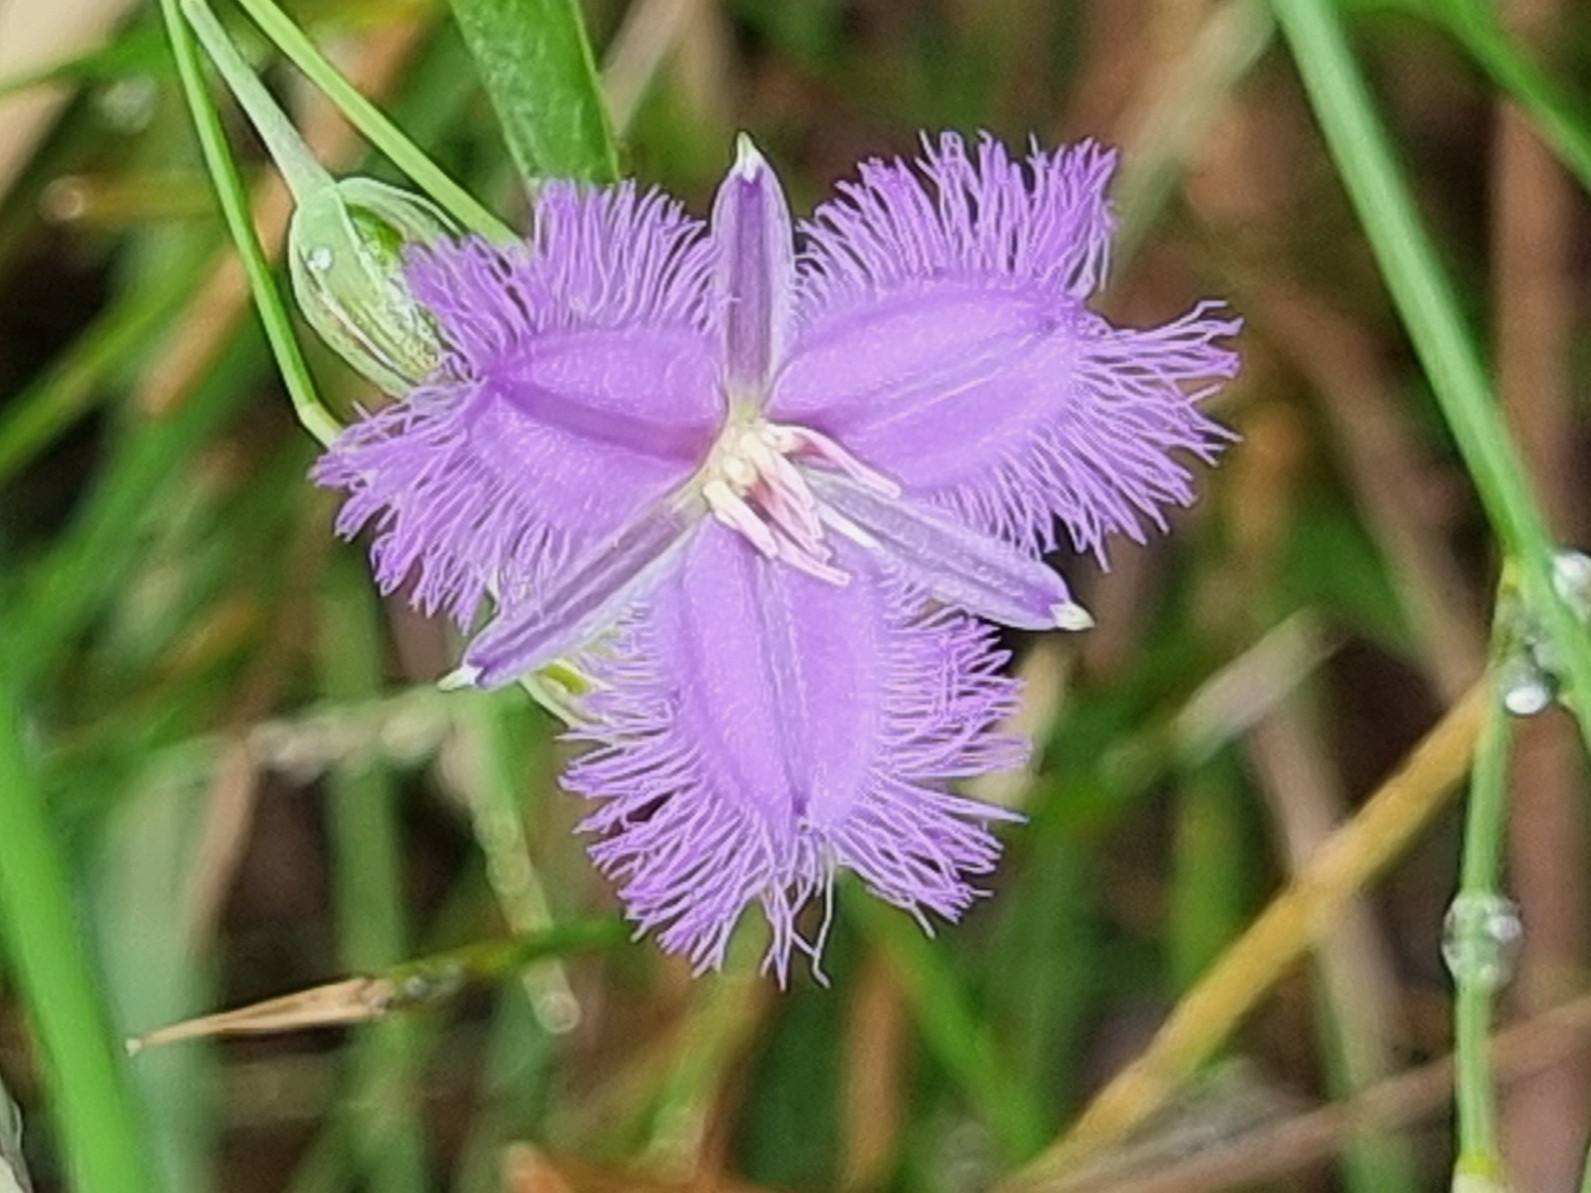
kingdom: Plantae
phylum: Tracheophyta
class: Liliopsida
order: Asparagales
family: Asparagaceae
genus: Thysanotus
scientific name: Thysanotus tuberosus
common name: Common fringed-lily
